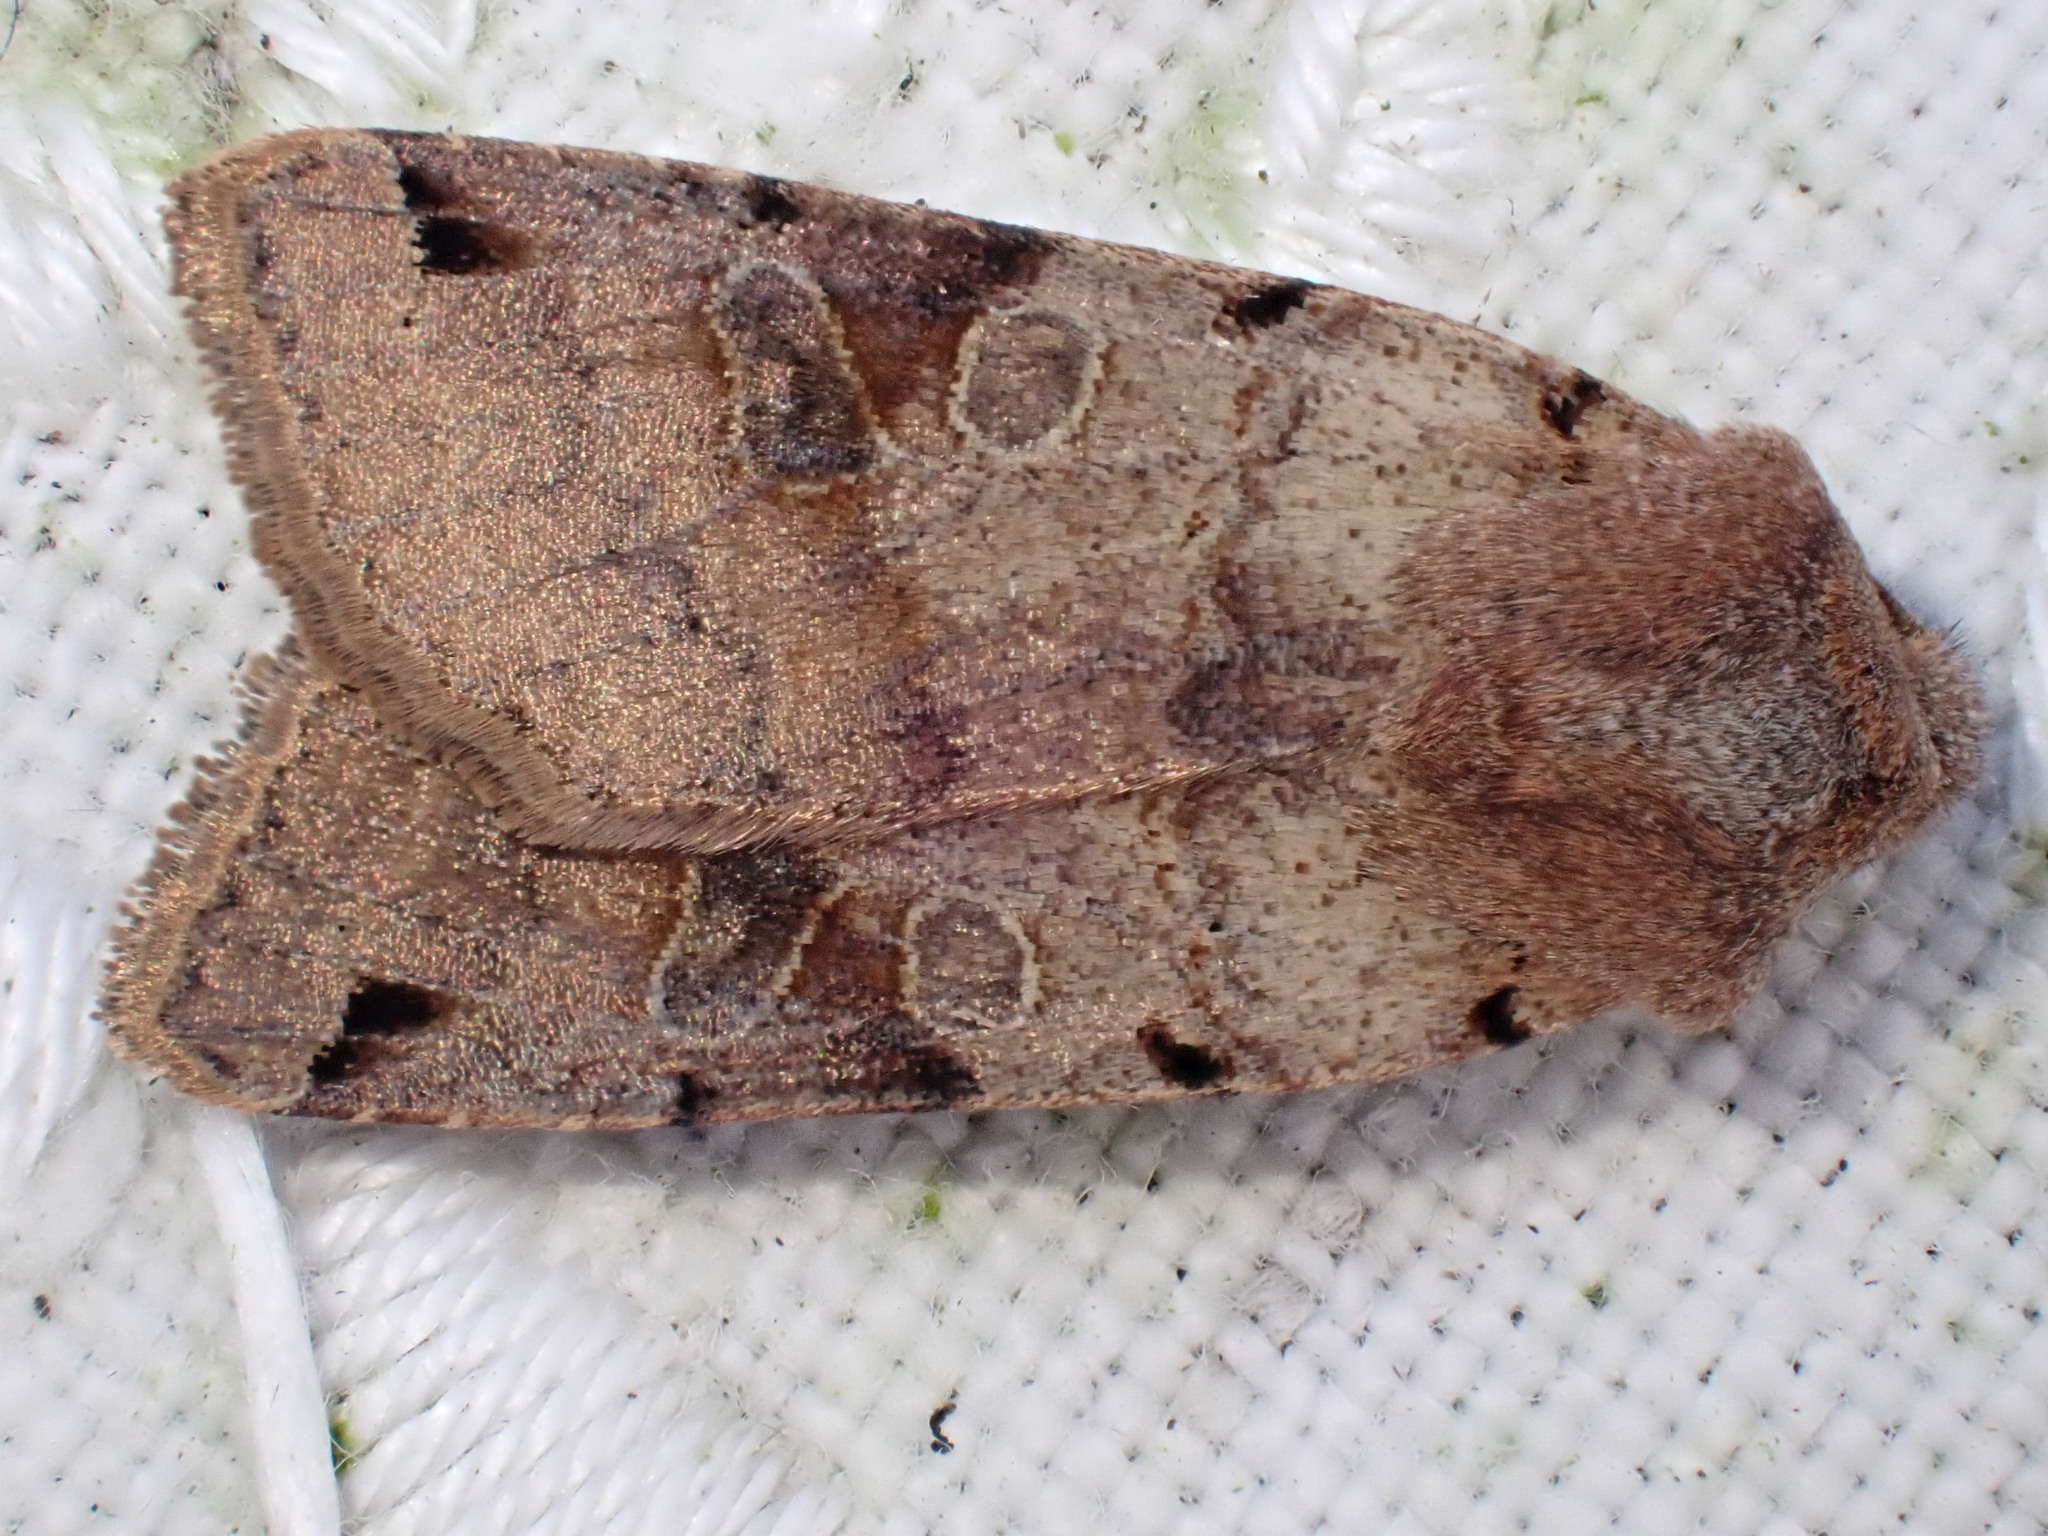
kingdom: Animalia
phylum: Arthropoda
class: Insecta
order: Lepidoptera
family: Noctuidae
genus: Agrochola
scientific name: Agrochola litura
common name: Brown-spot pinion
